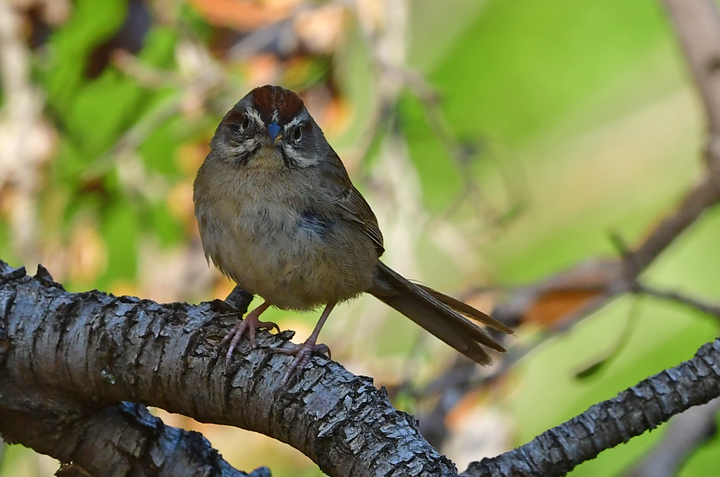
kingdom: Animalia
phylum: Chordata
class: Aves
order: Passeriformes
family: Passerellidae
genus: Aimophila
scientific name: Aimophila ruficeps
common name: Rufous-crowned sparrow
